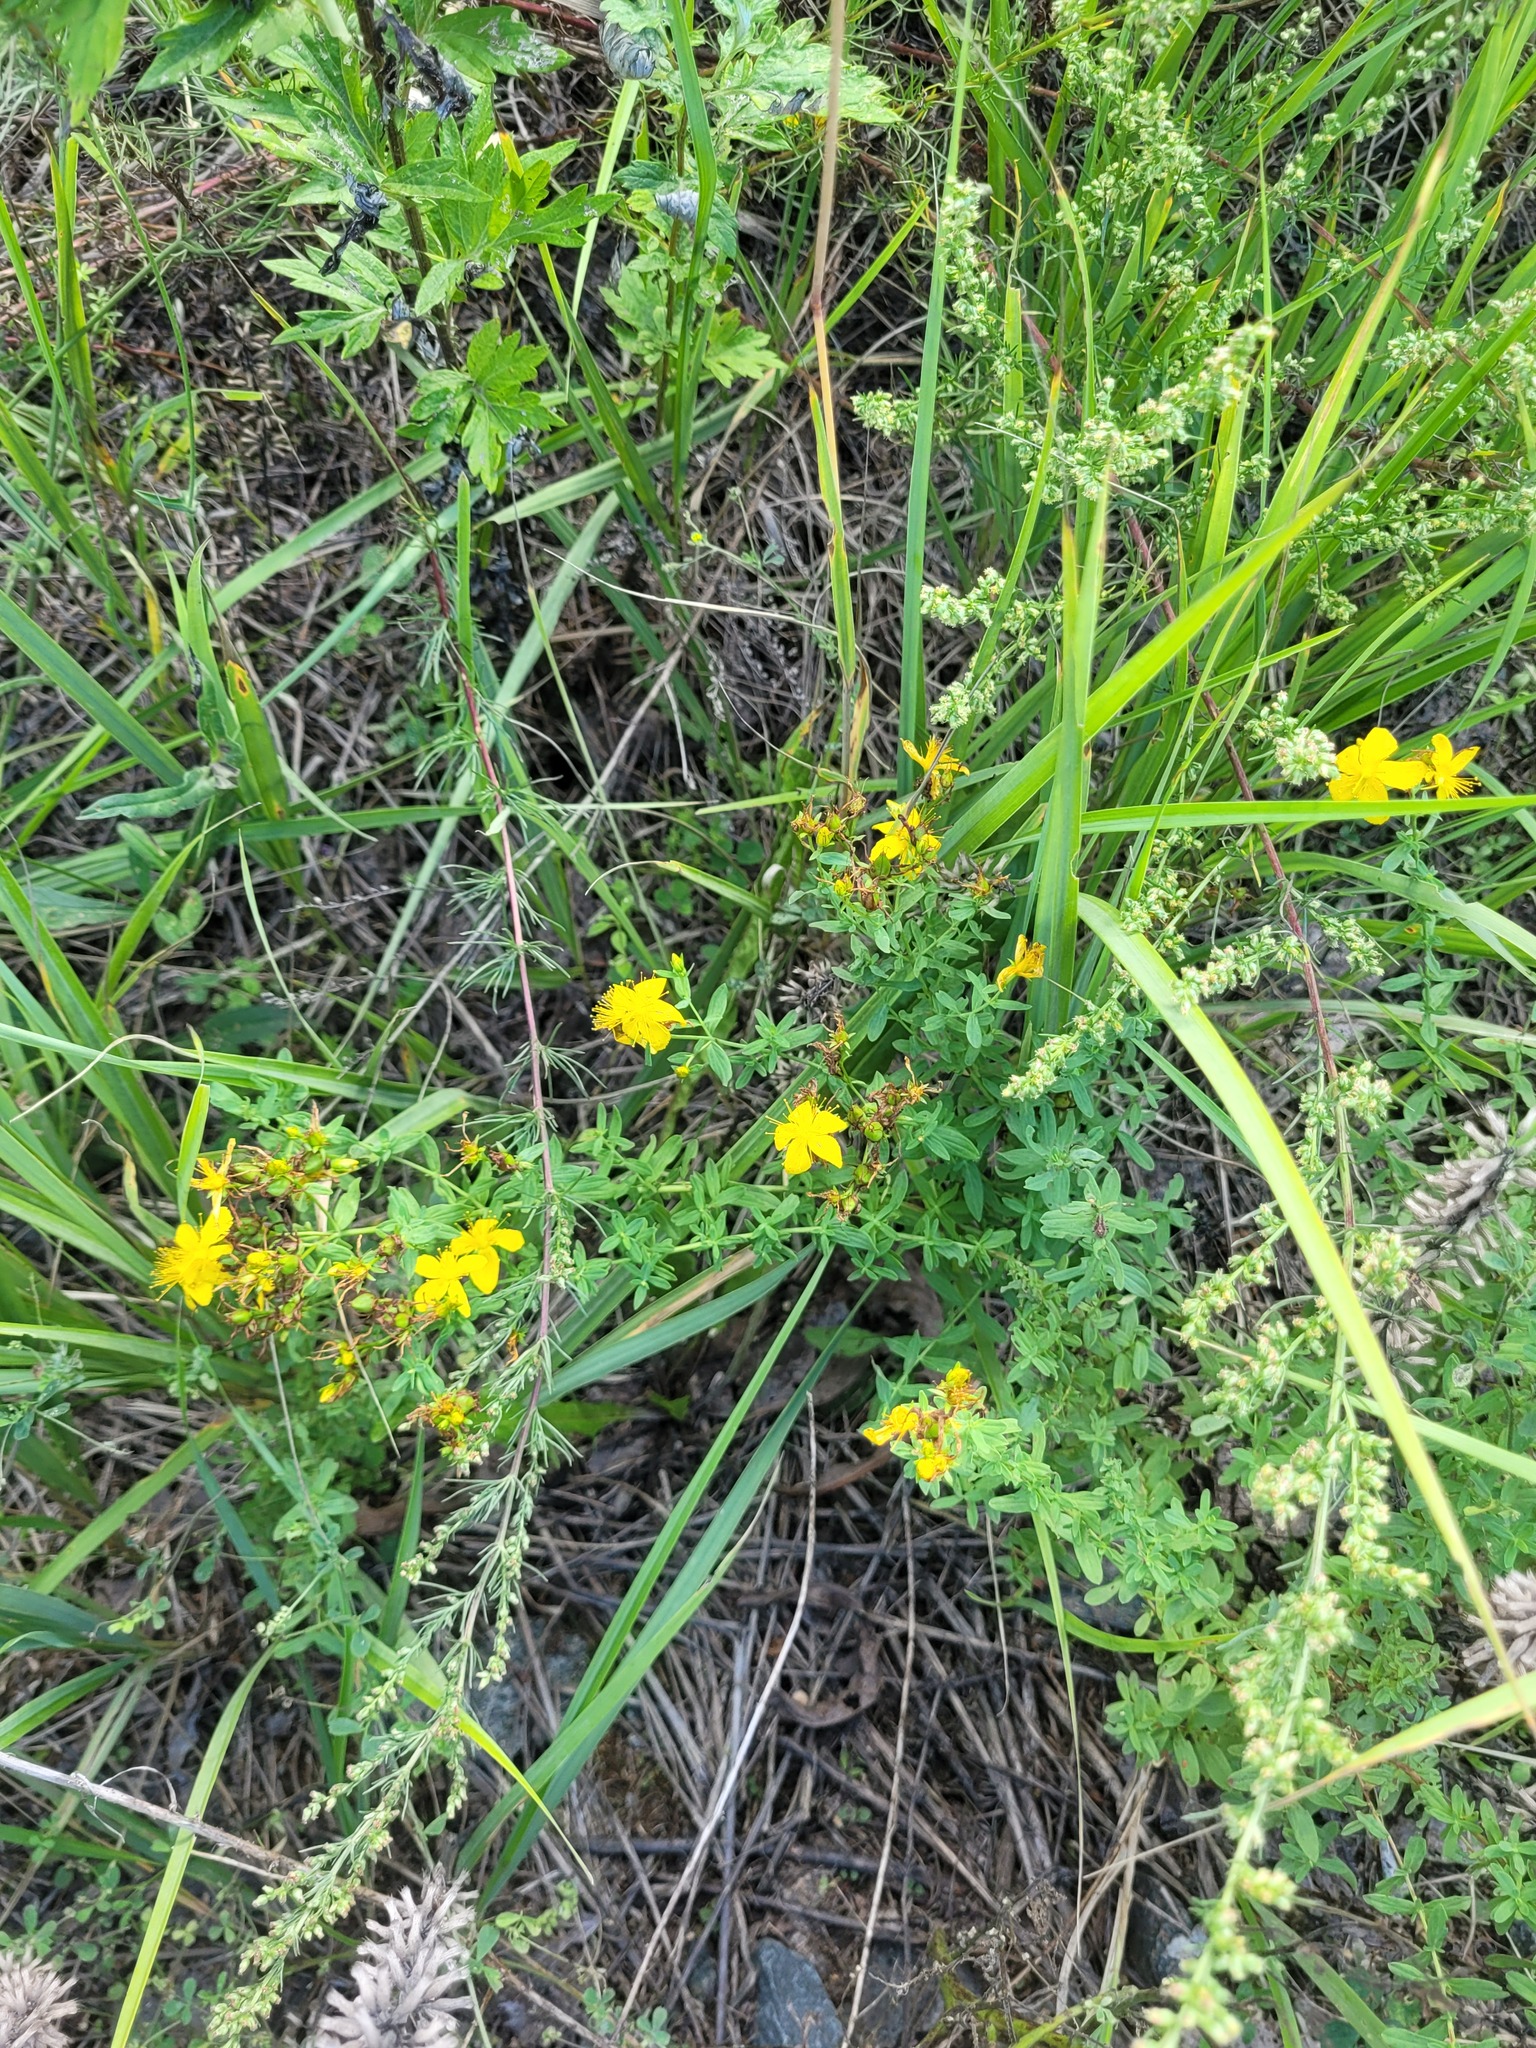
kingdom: Plantae
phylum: Tracheophyta
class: Magnoliopsida
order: Malpighiales
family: Hypericaceae
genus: Hypericum
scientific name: Hypericum perforatum
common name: Common st. johnswort
